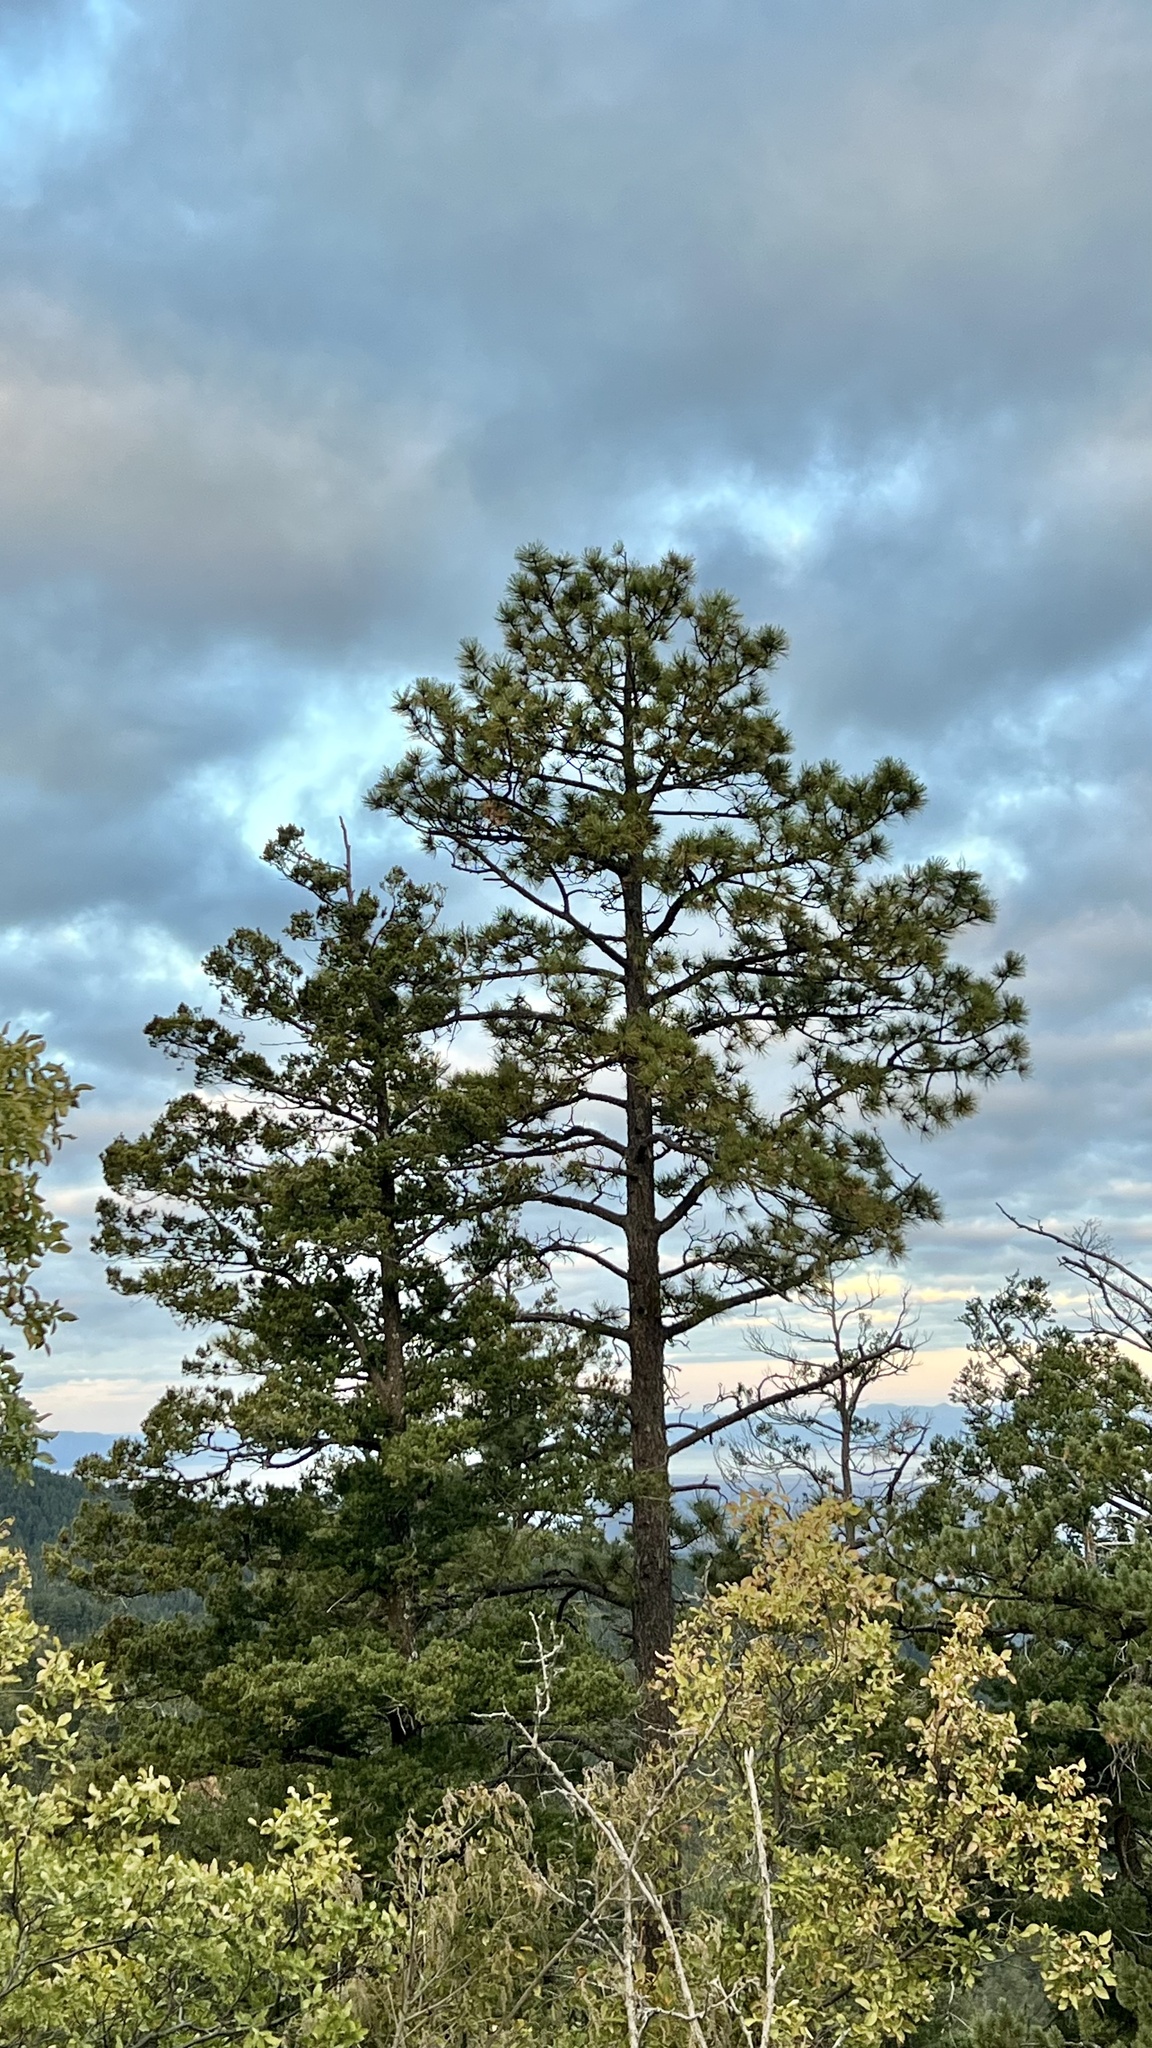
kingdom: Plantae
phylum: Tracheophyta
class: Pinopsida
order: Pinales
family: Pinaceae
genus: Pinus
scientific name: Pinus ponderosa
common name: Western yellow-pine
